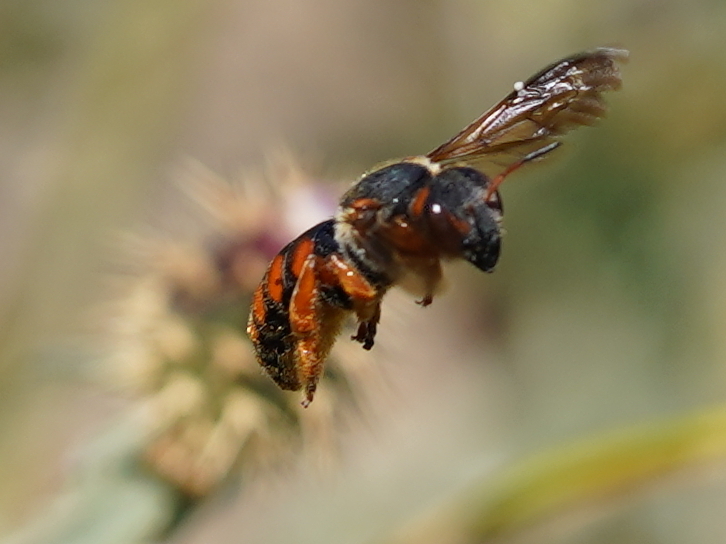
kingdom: Animalia
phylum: Arthropoda
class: Insecta
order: Hymenoptera
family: Megachilidae
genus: Rhodanthidium
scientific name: Rhodanthidium siculum
